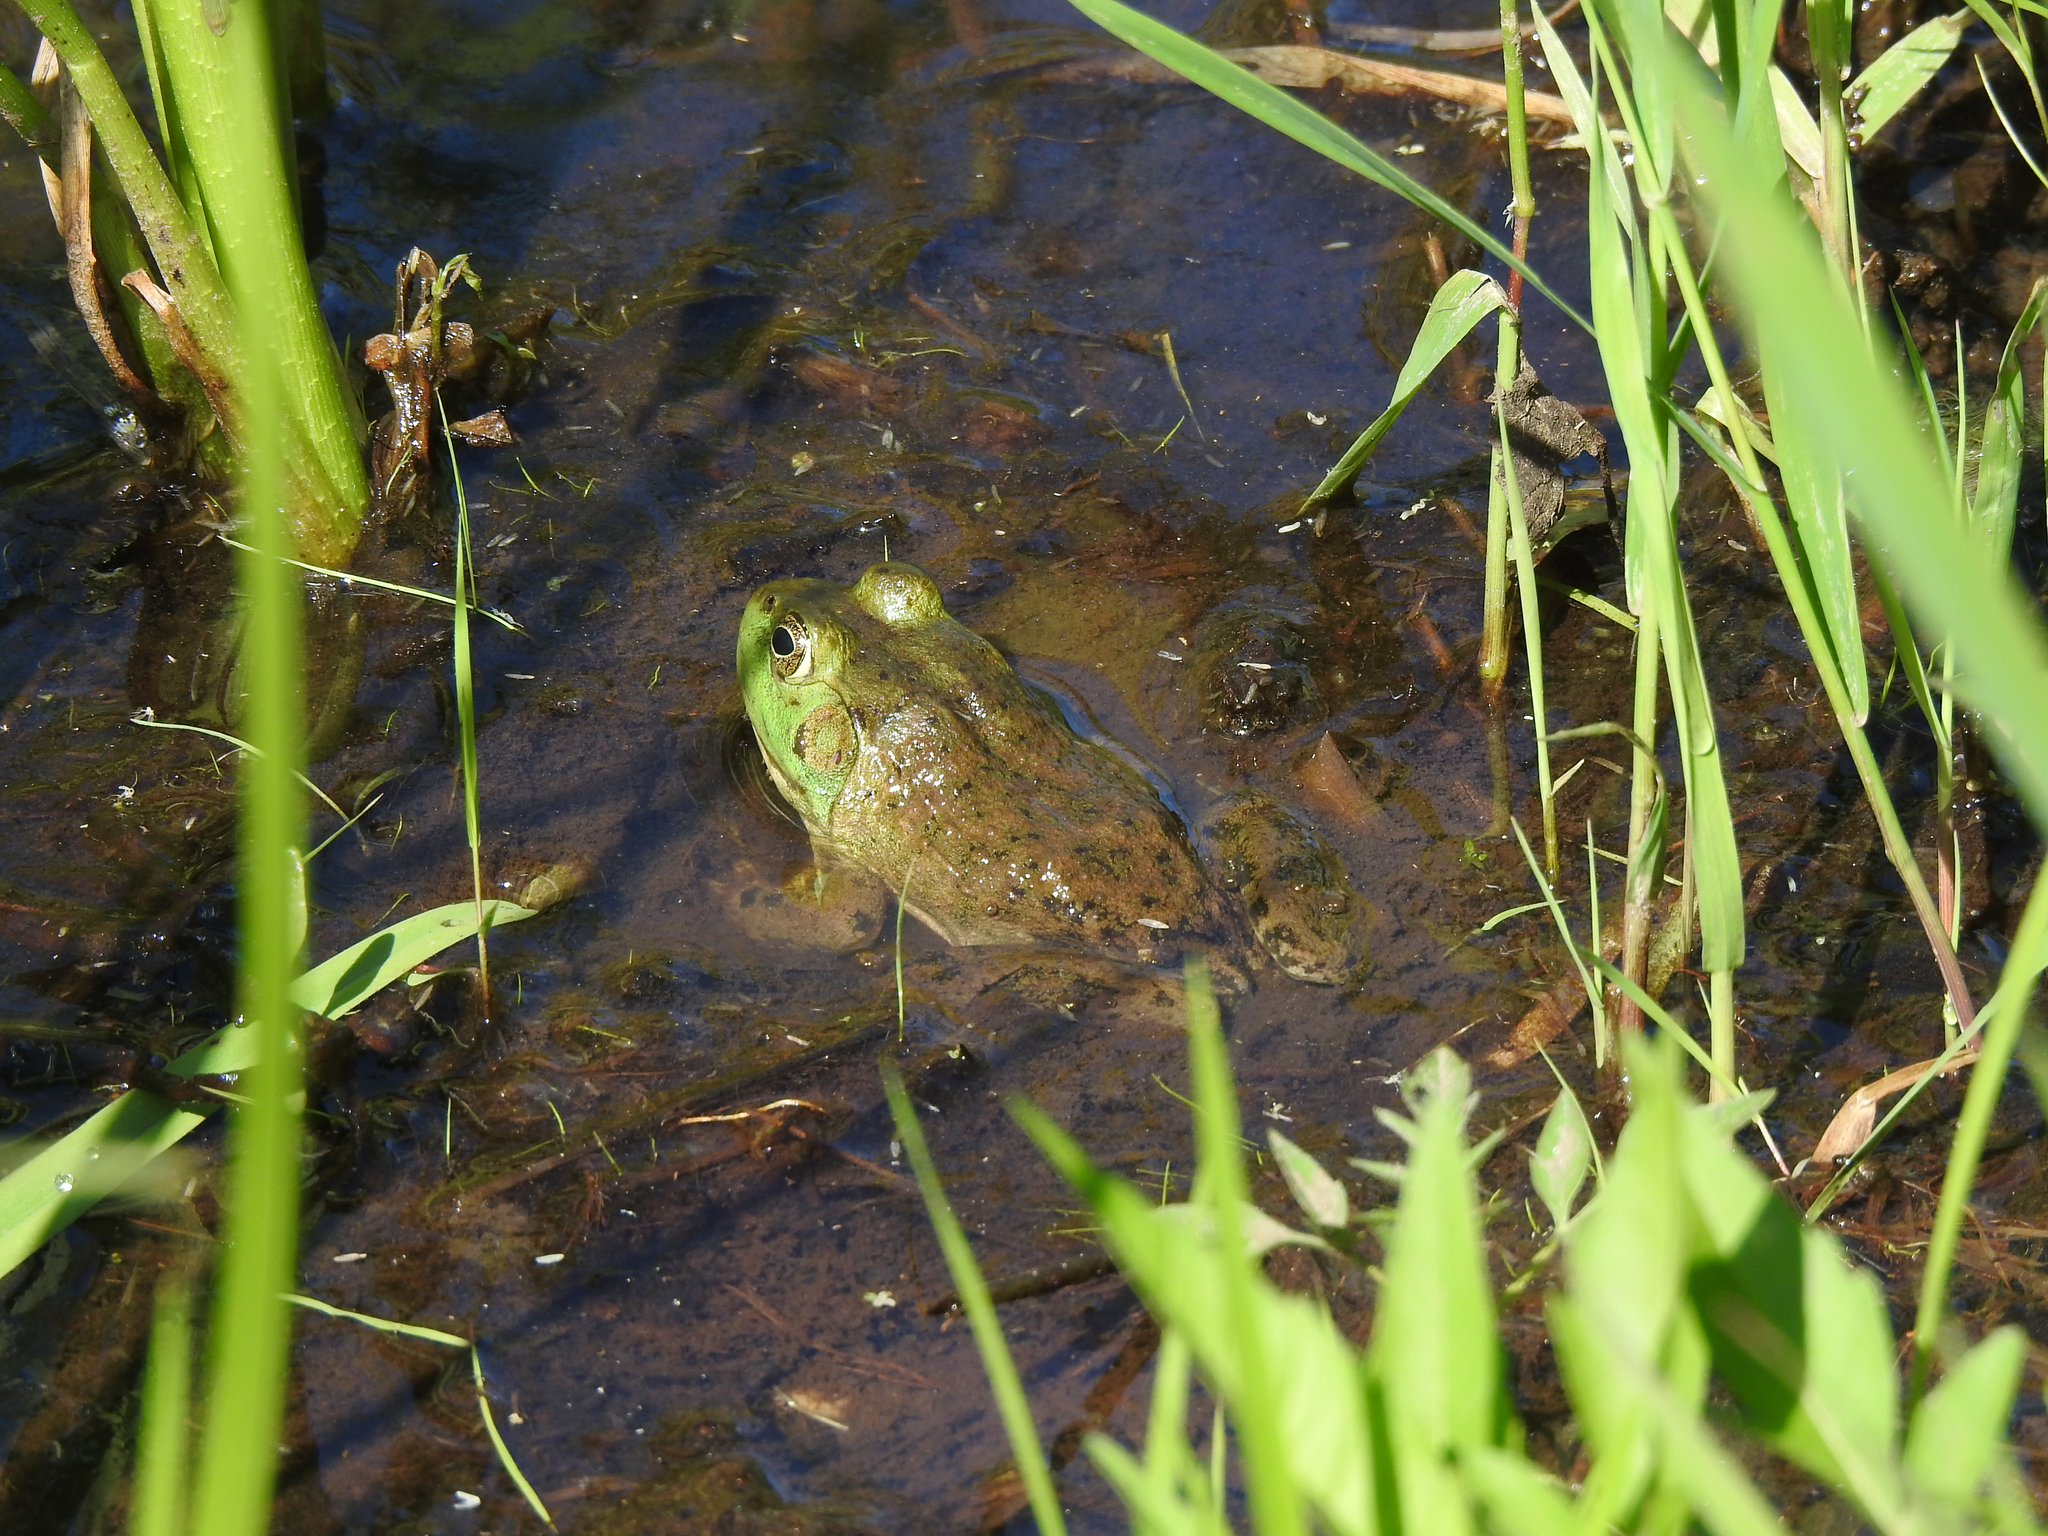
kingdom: Animalia
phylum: Chordata
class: Amphibia
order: Anura
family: Ranidae
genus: Lithobates
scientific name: Lithobates catesbeianus
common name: American bullfrog
